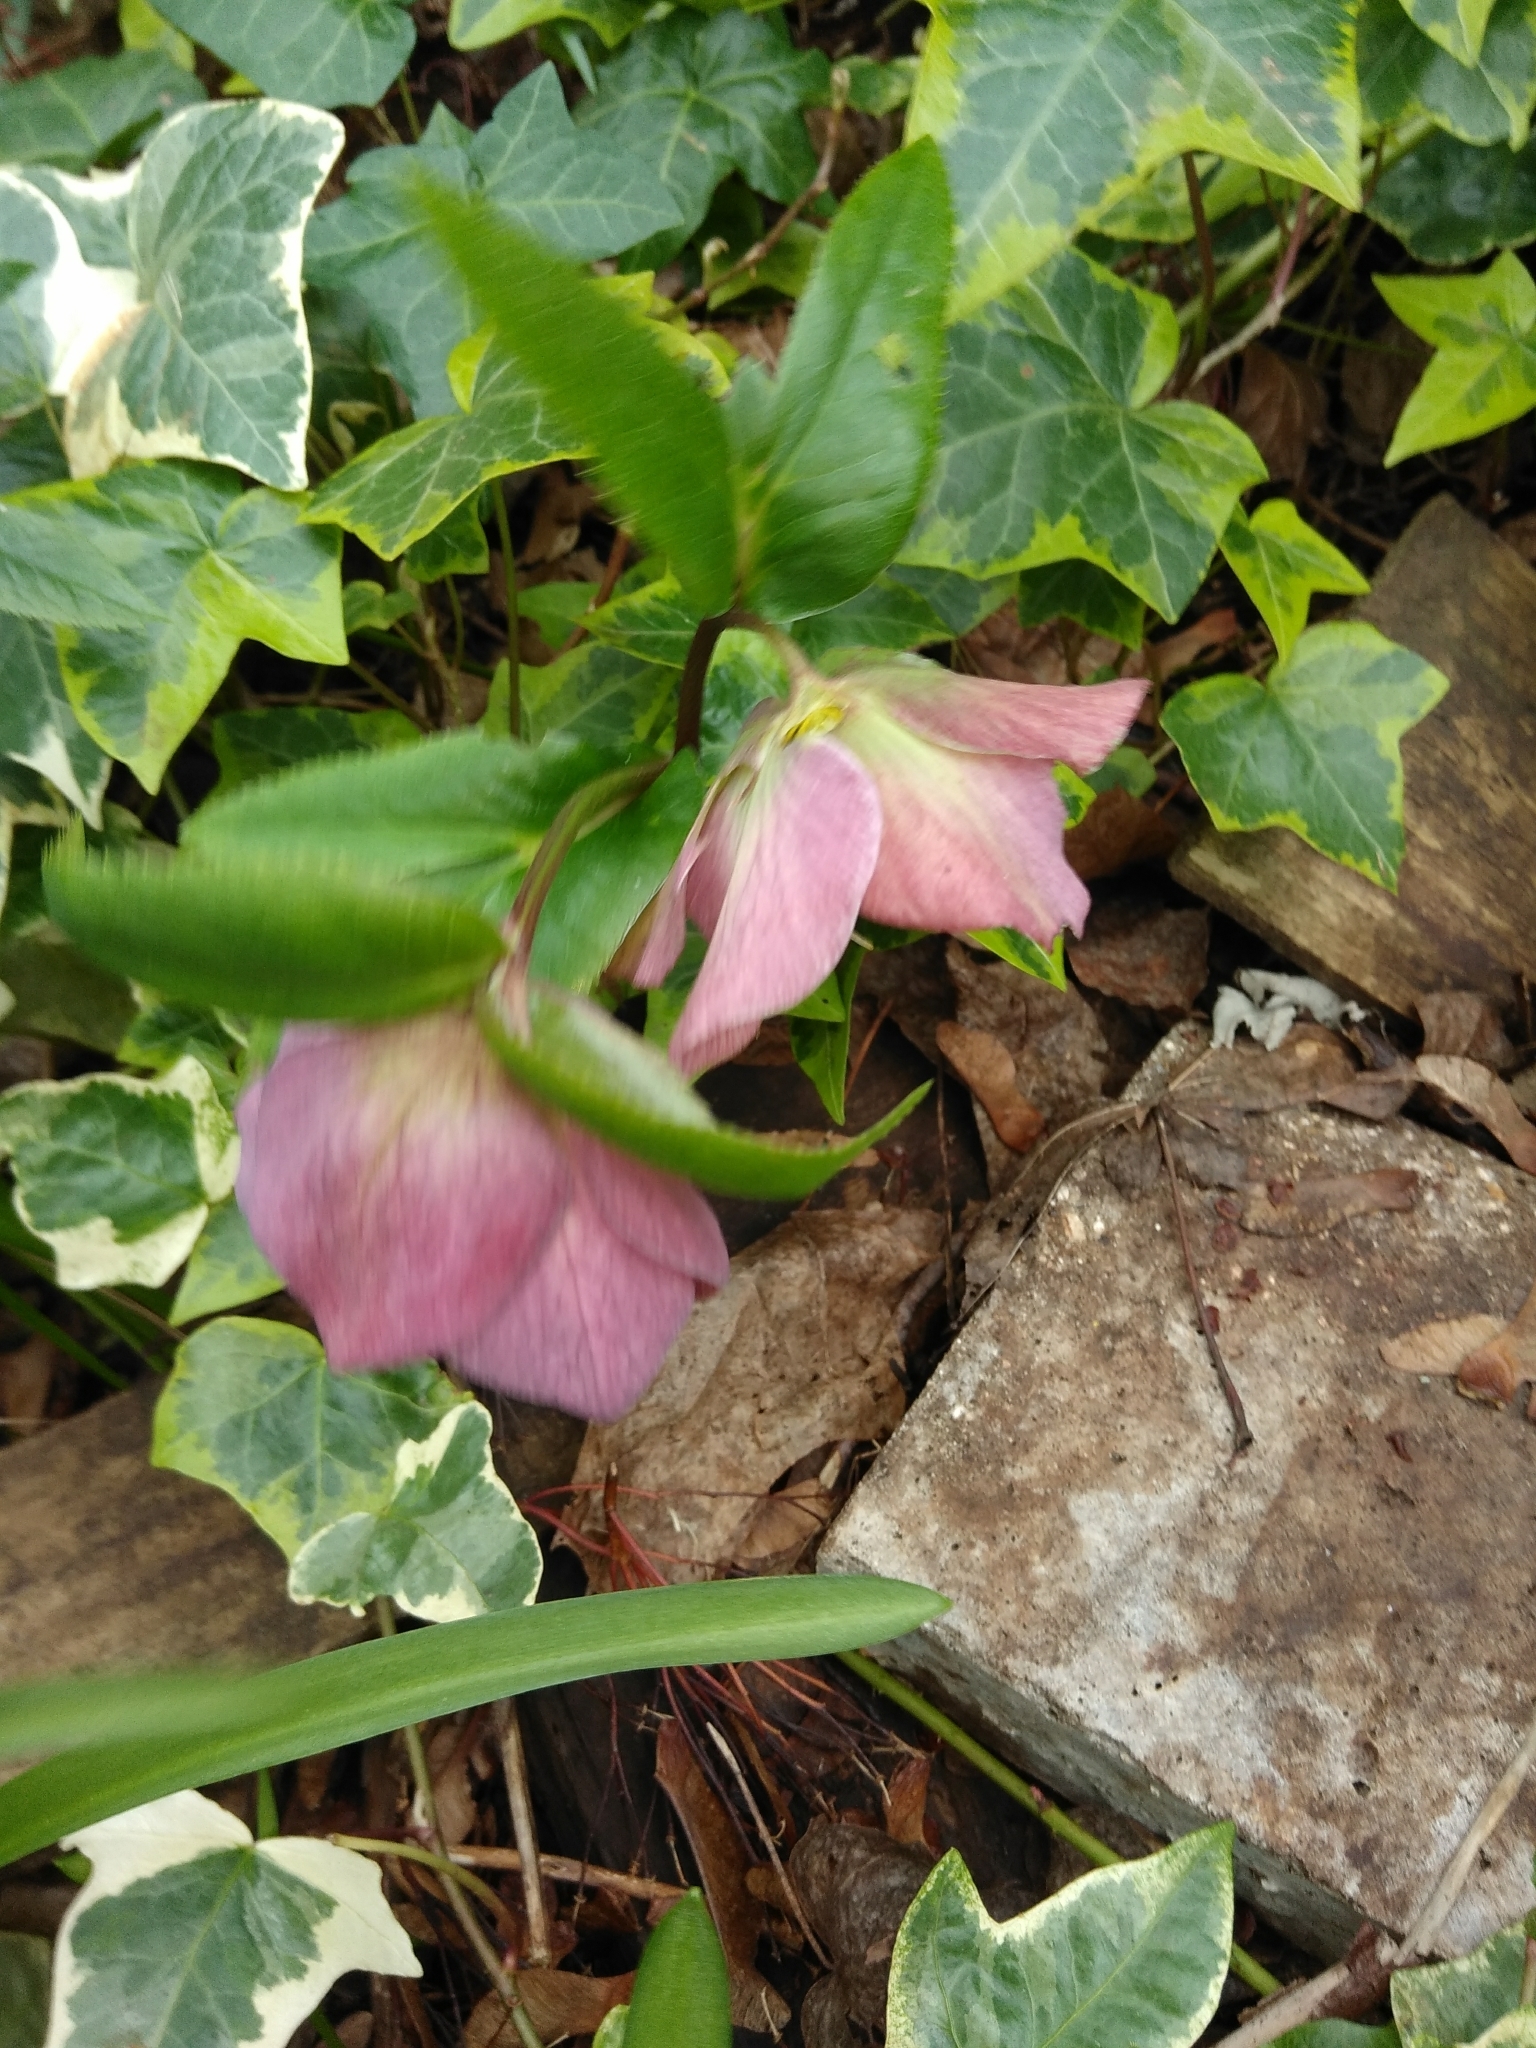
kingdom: Plantae
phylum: Tracheophyta
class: Magnoliopsida
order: Ranunculales
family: Ranunculaceae
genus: Helleborus
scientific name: Helleborus orientalis
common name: Lenten-rose
